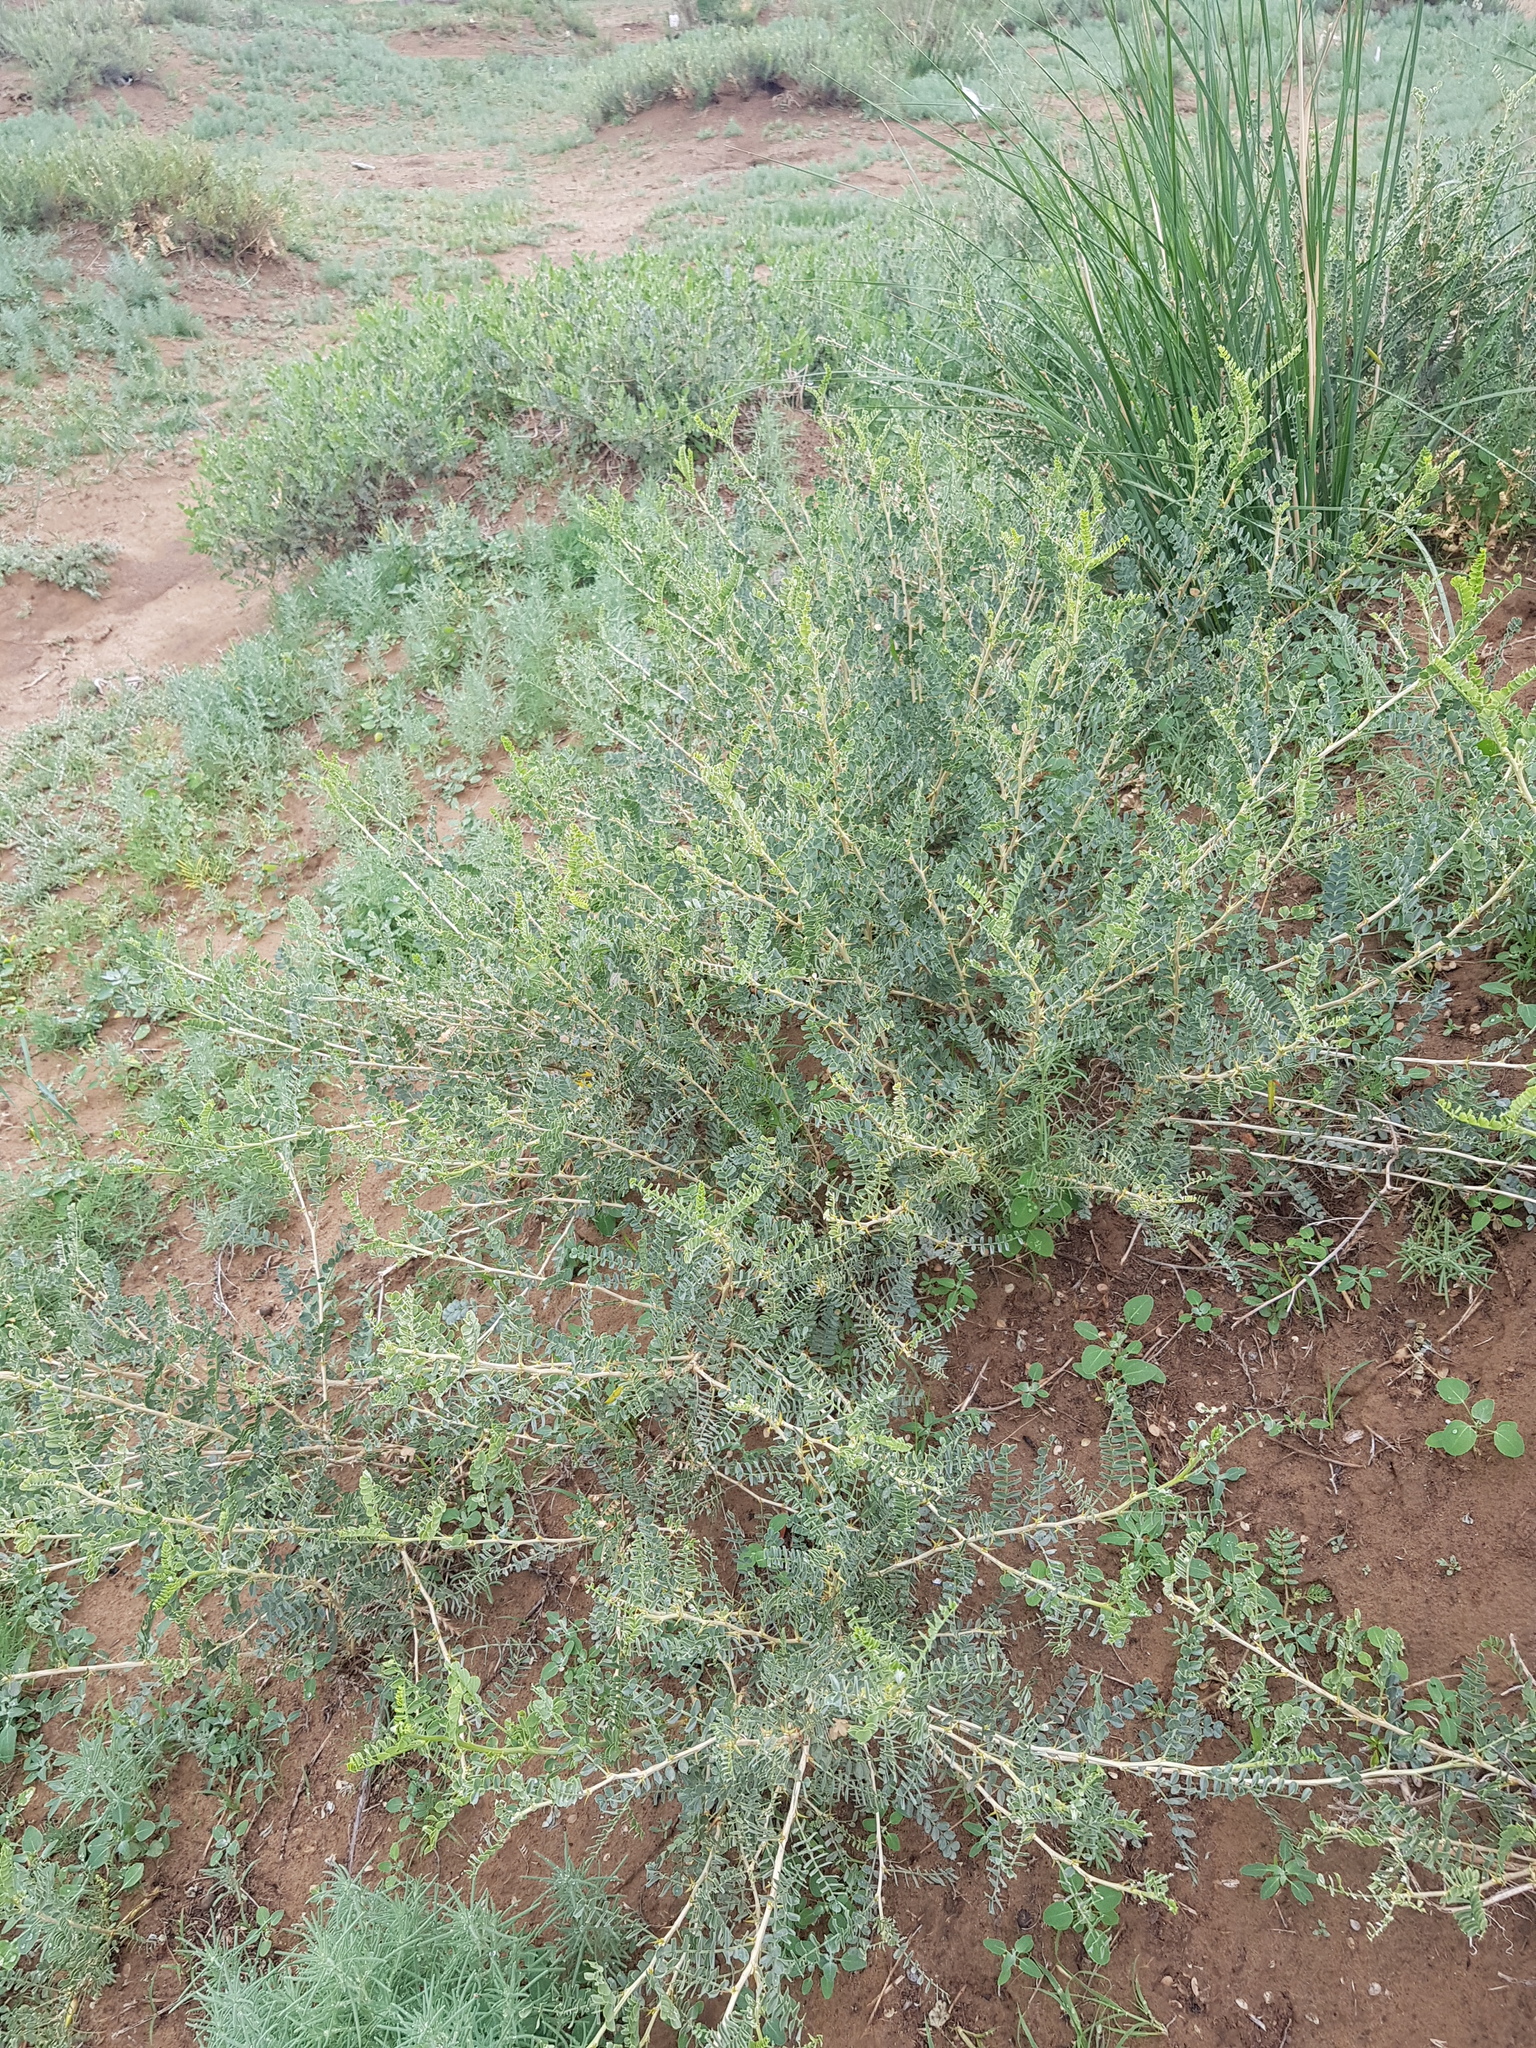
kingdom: Plantae
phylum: Tracheophyta
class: Magnoliopsida
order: Fabales
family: Fabaceae
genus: Caragana
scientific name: Caragana microphylla
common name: Littleleaf peashrub
